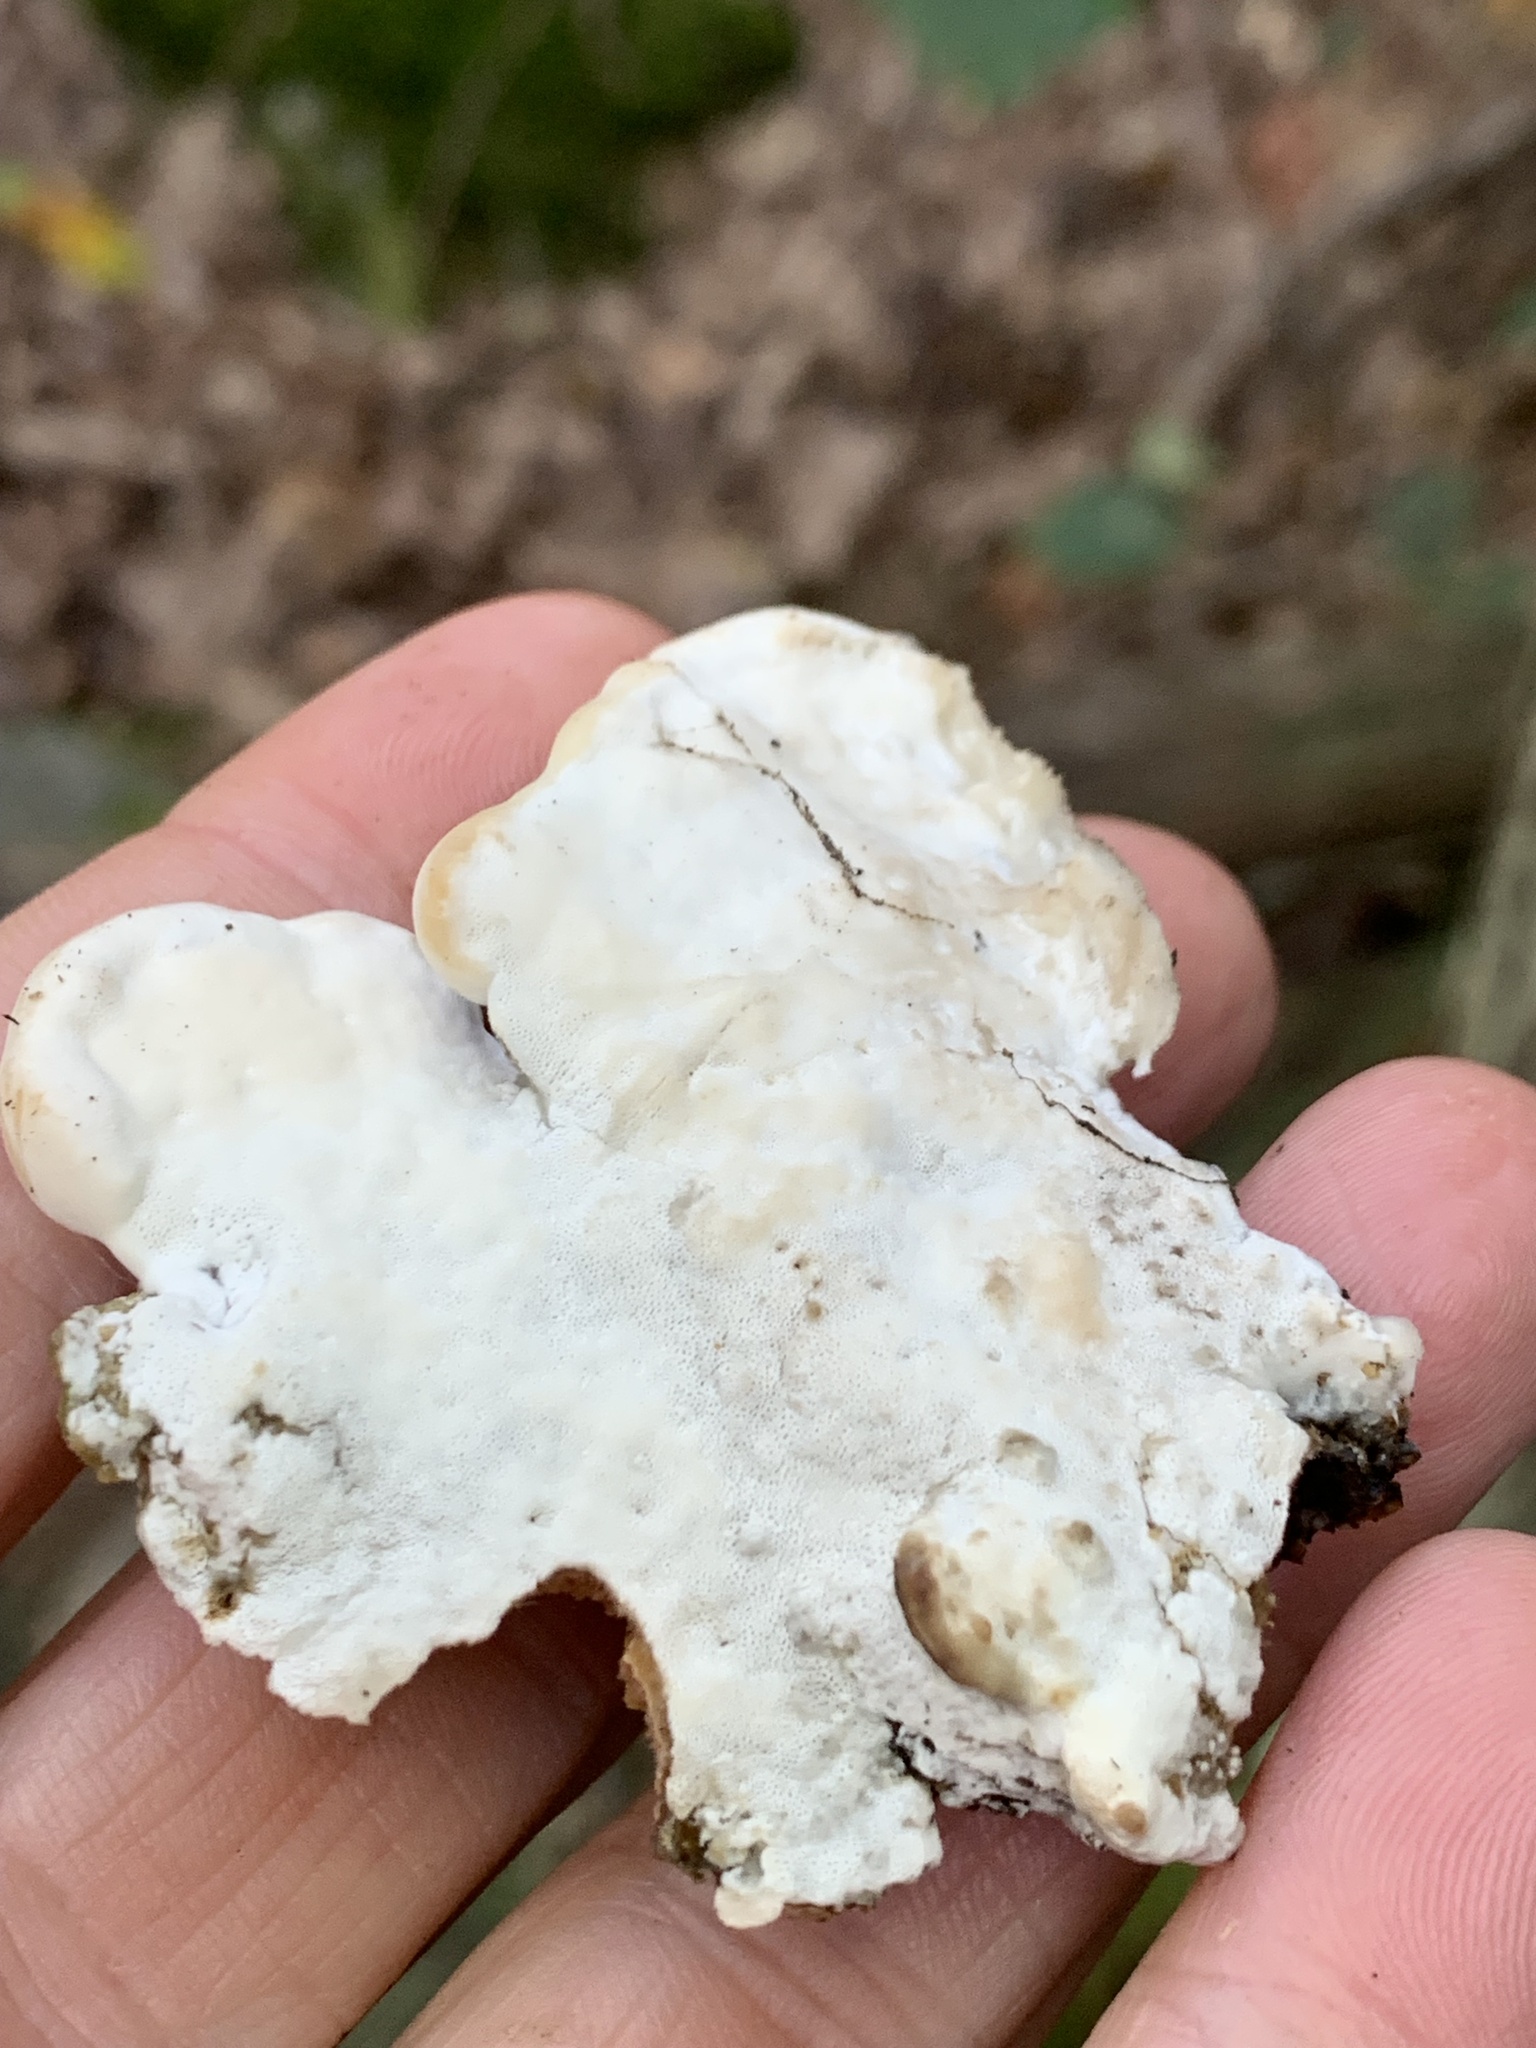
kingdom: Fungi
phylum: Basidiomycota
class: Agaricomycetes
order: Hymenochaetales
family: Oxyporaceae
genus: Oxyporus
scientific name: Oxyporus populinus
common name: Poplar bracket
